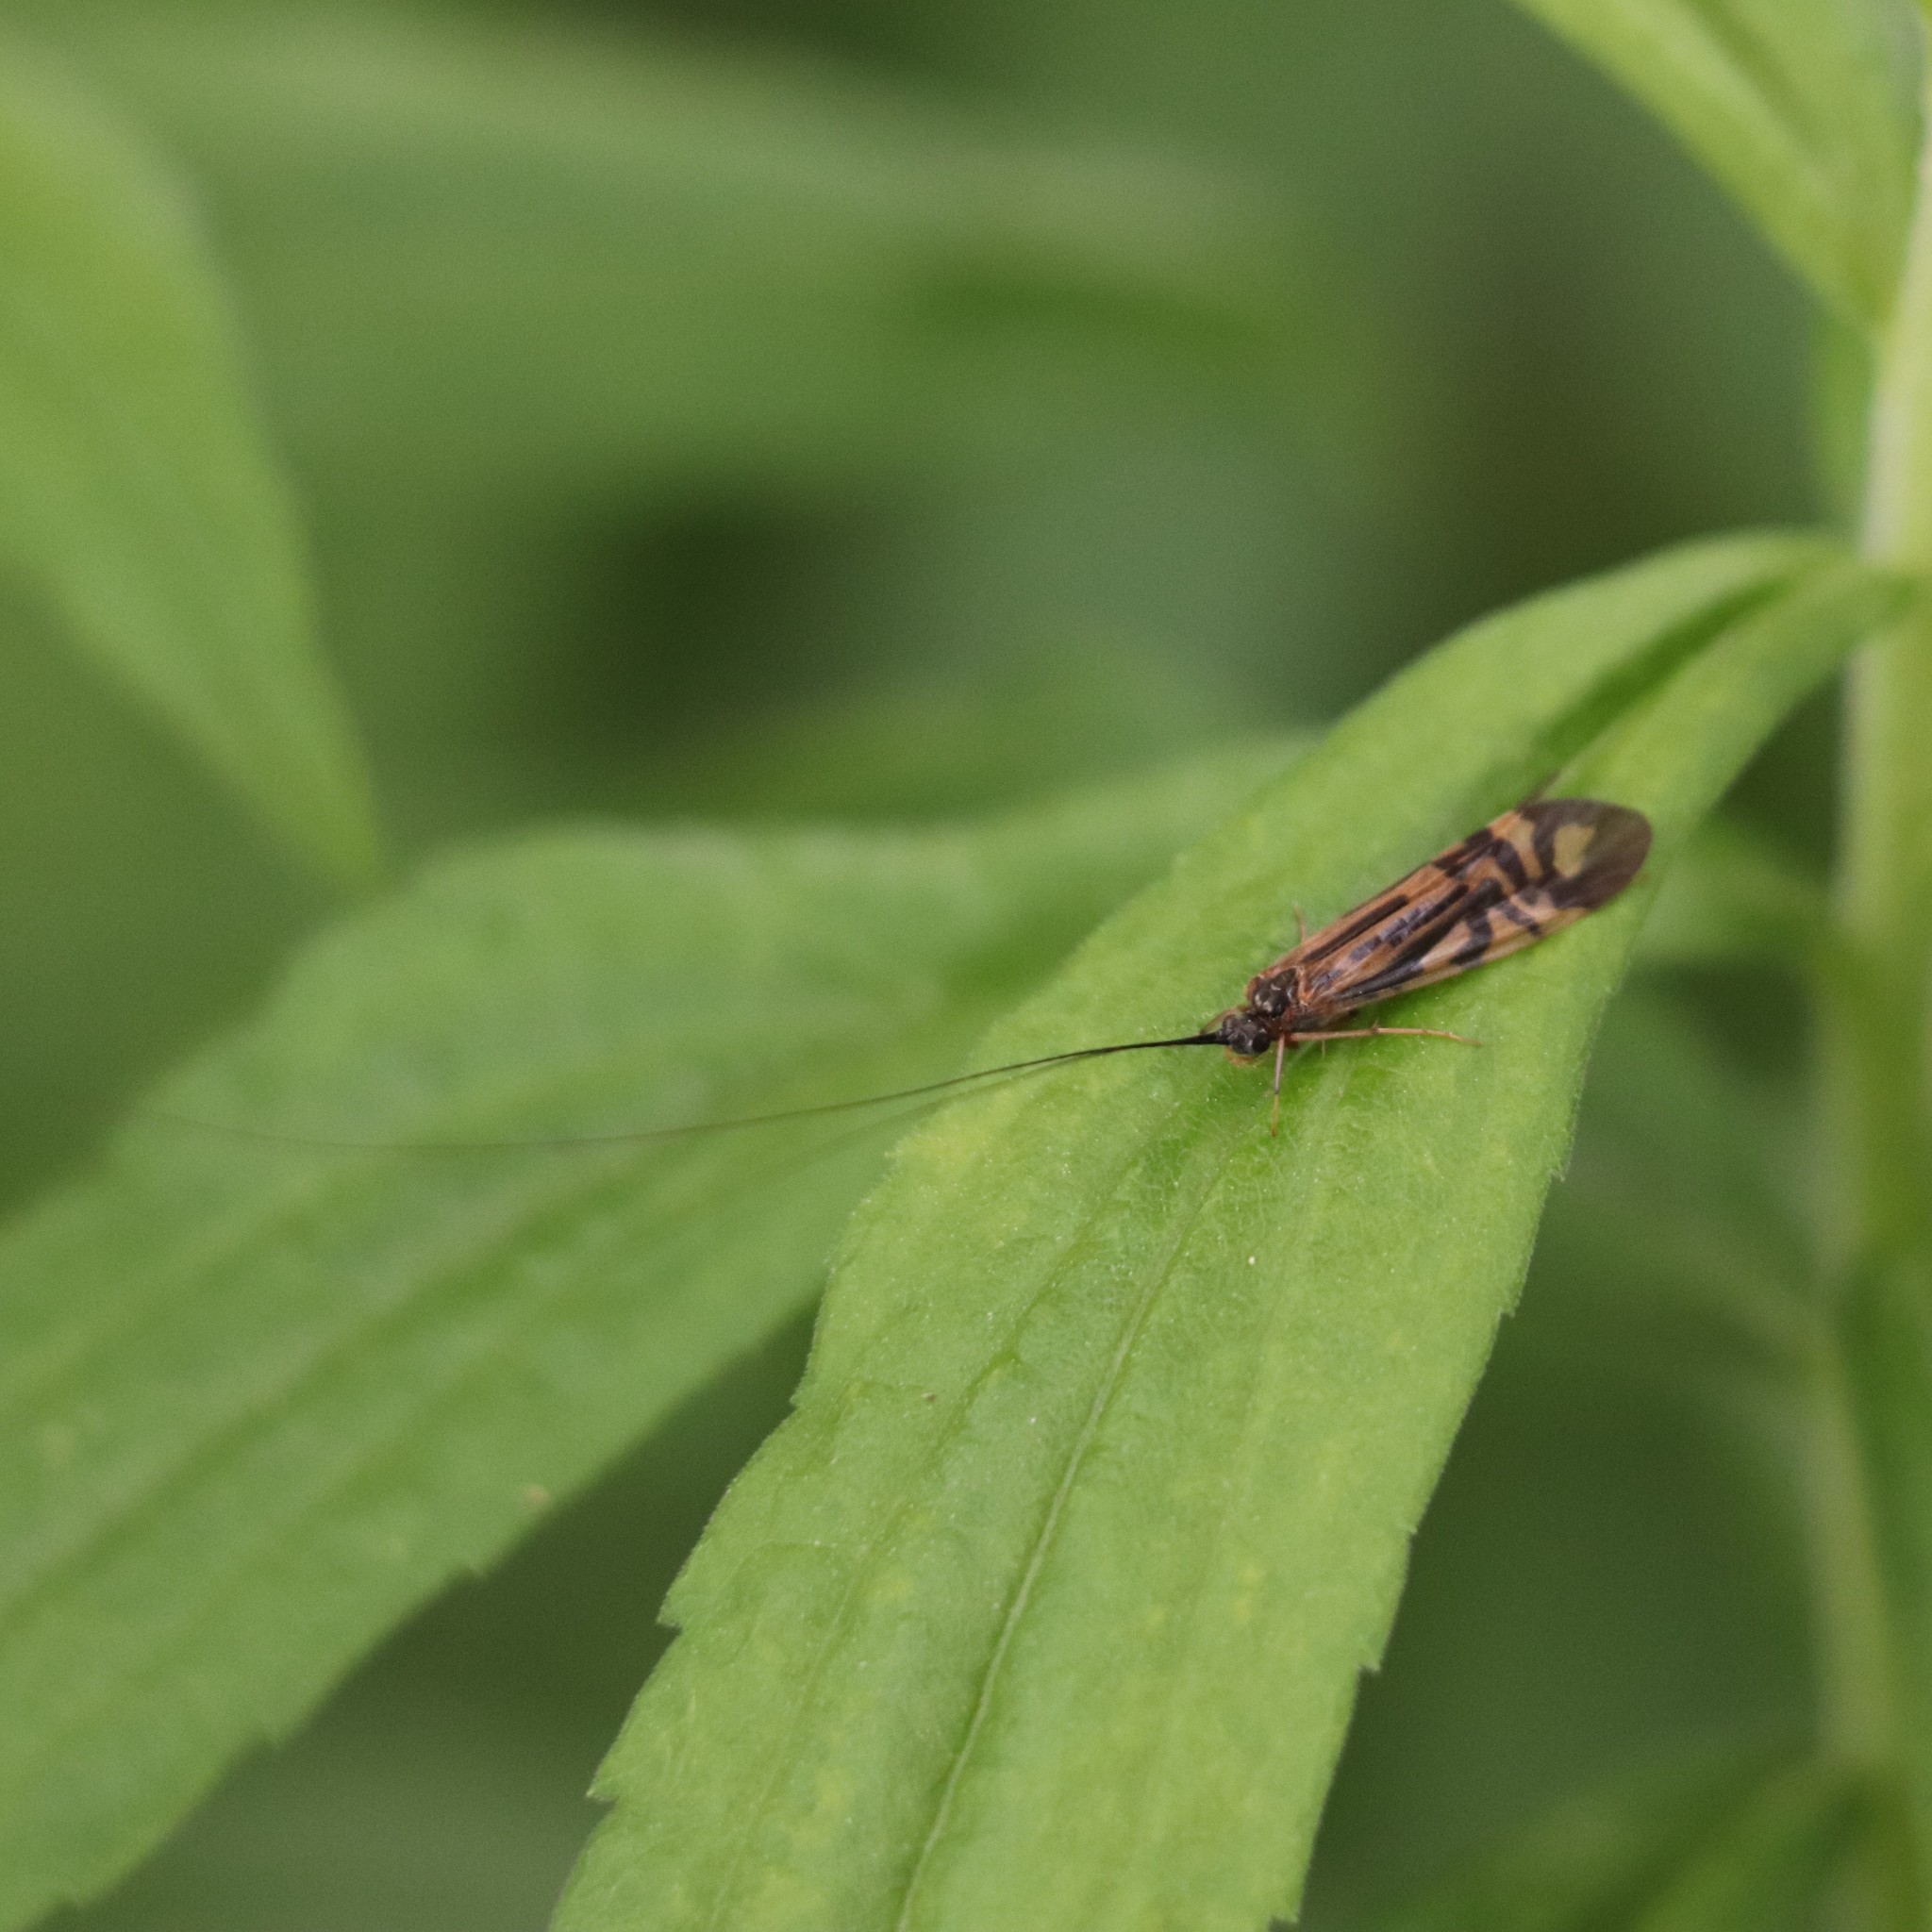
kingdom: Animalia
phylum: Arthropoda
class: Insecta
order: Trichoptera
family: Hydropsychidae
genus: Macrostemum
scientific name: Macrostemum zebratum
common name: Zebra caddisfly
